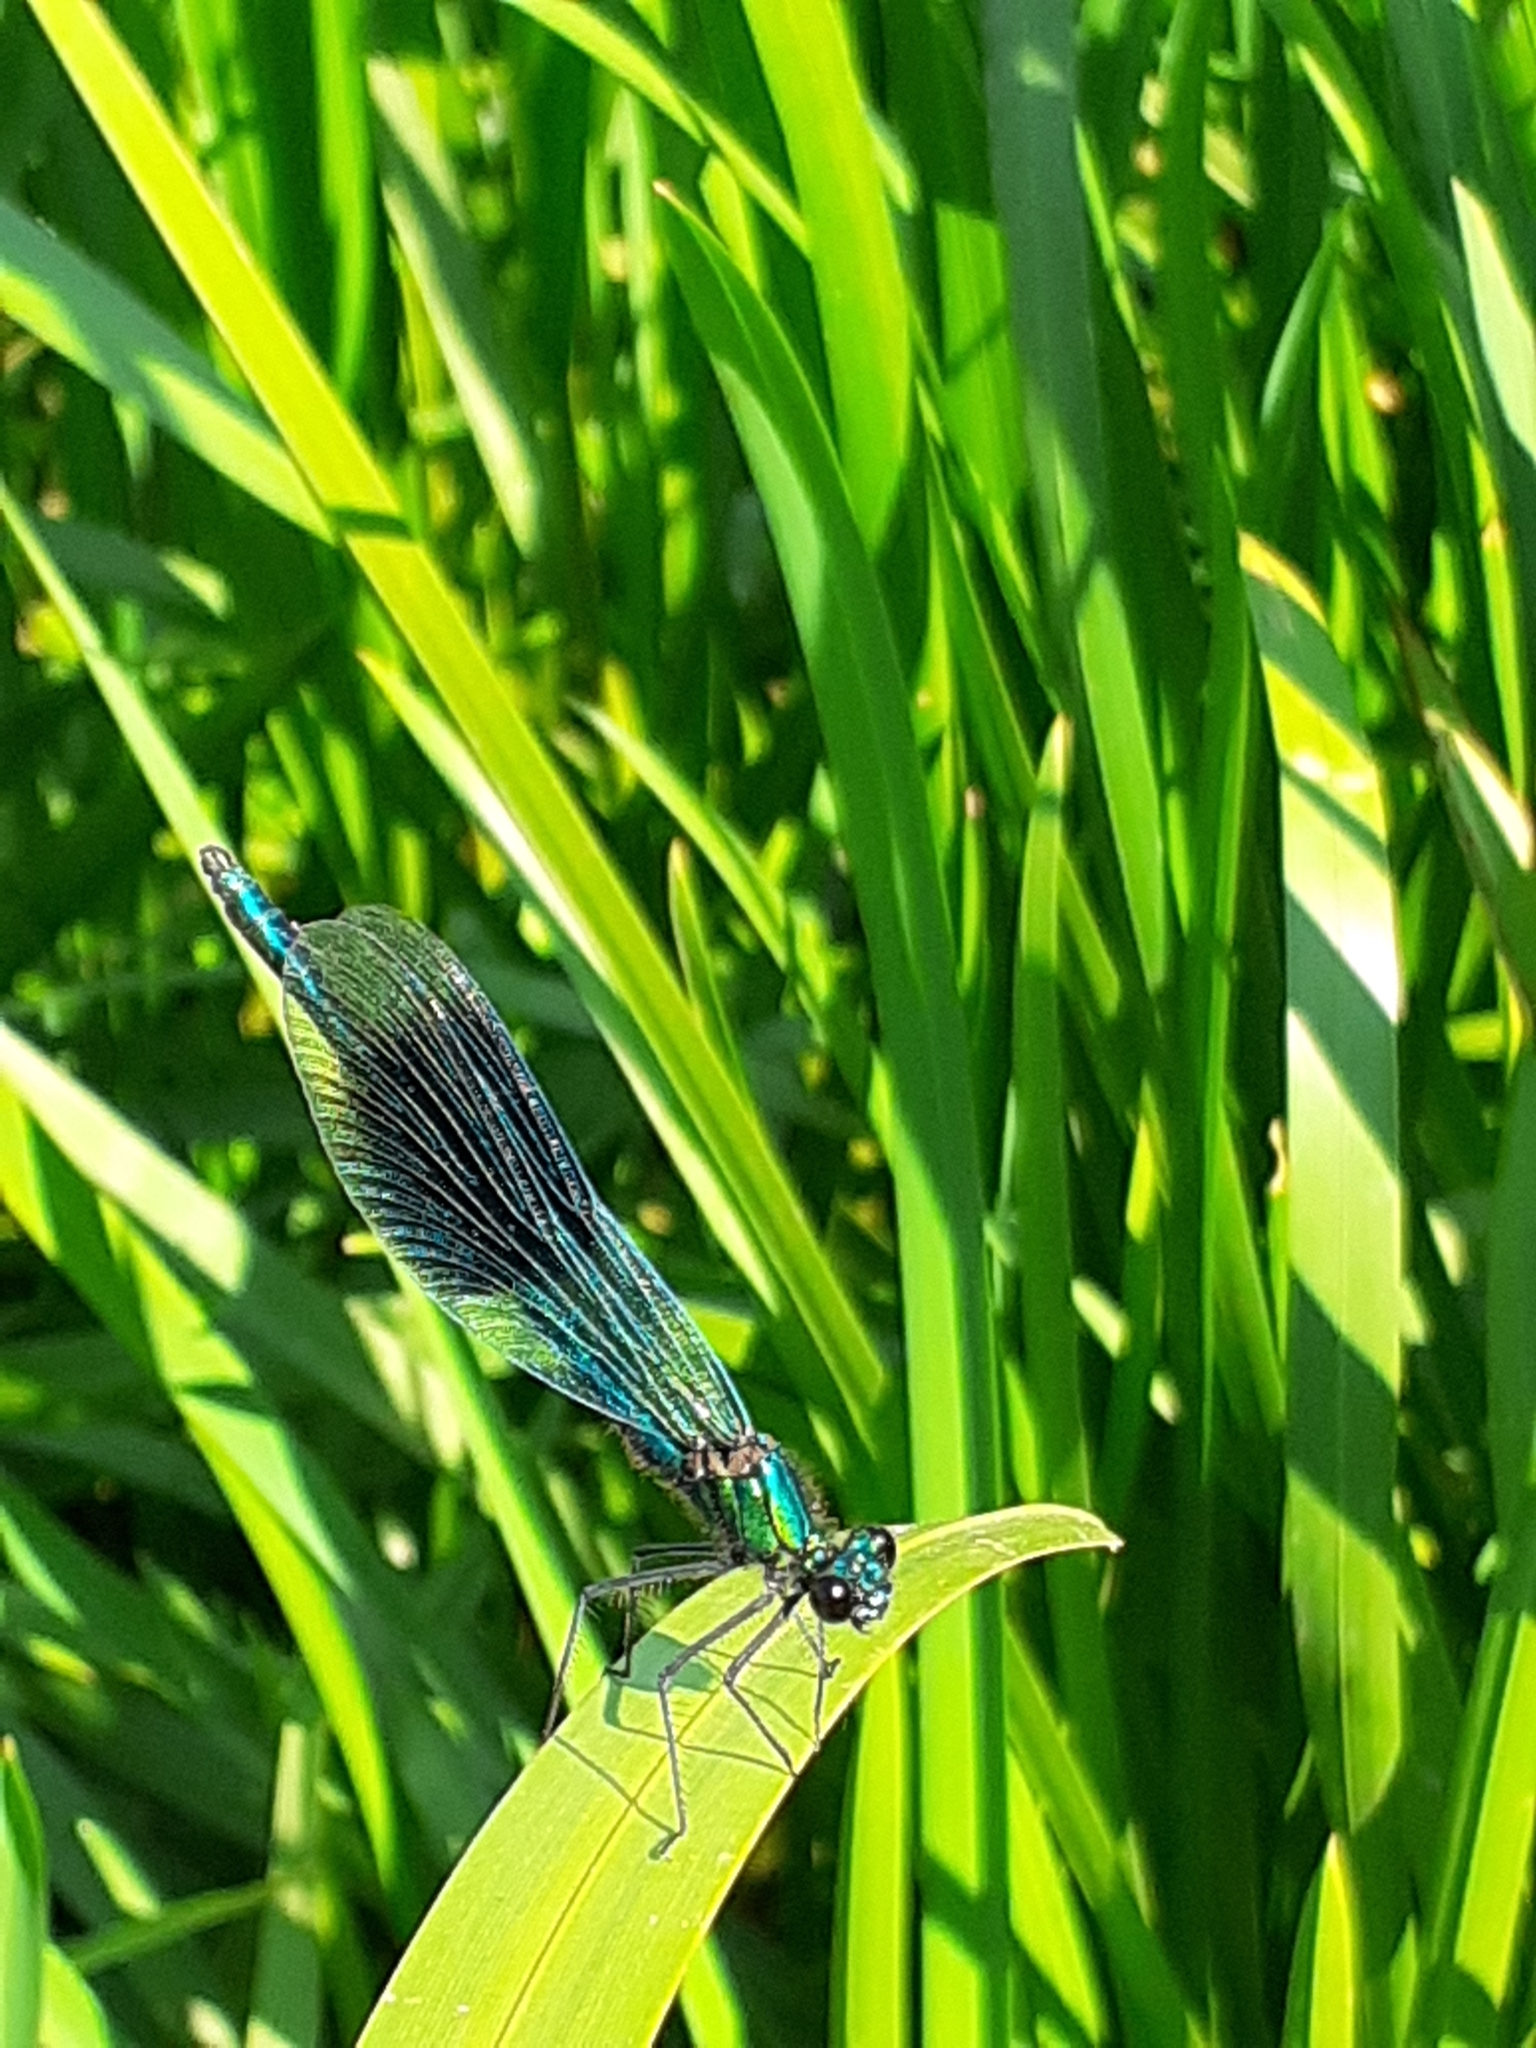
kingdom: Animalia
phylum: Arthropoda
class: Insecta
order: Odonata
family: Calopterygidae
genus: Calopteryx
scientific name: Calopteryx splendens
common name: Banded demoiselle
